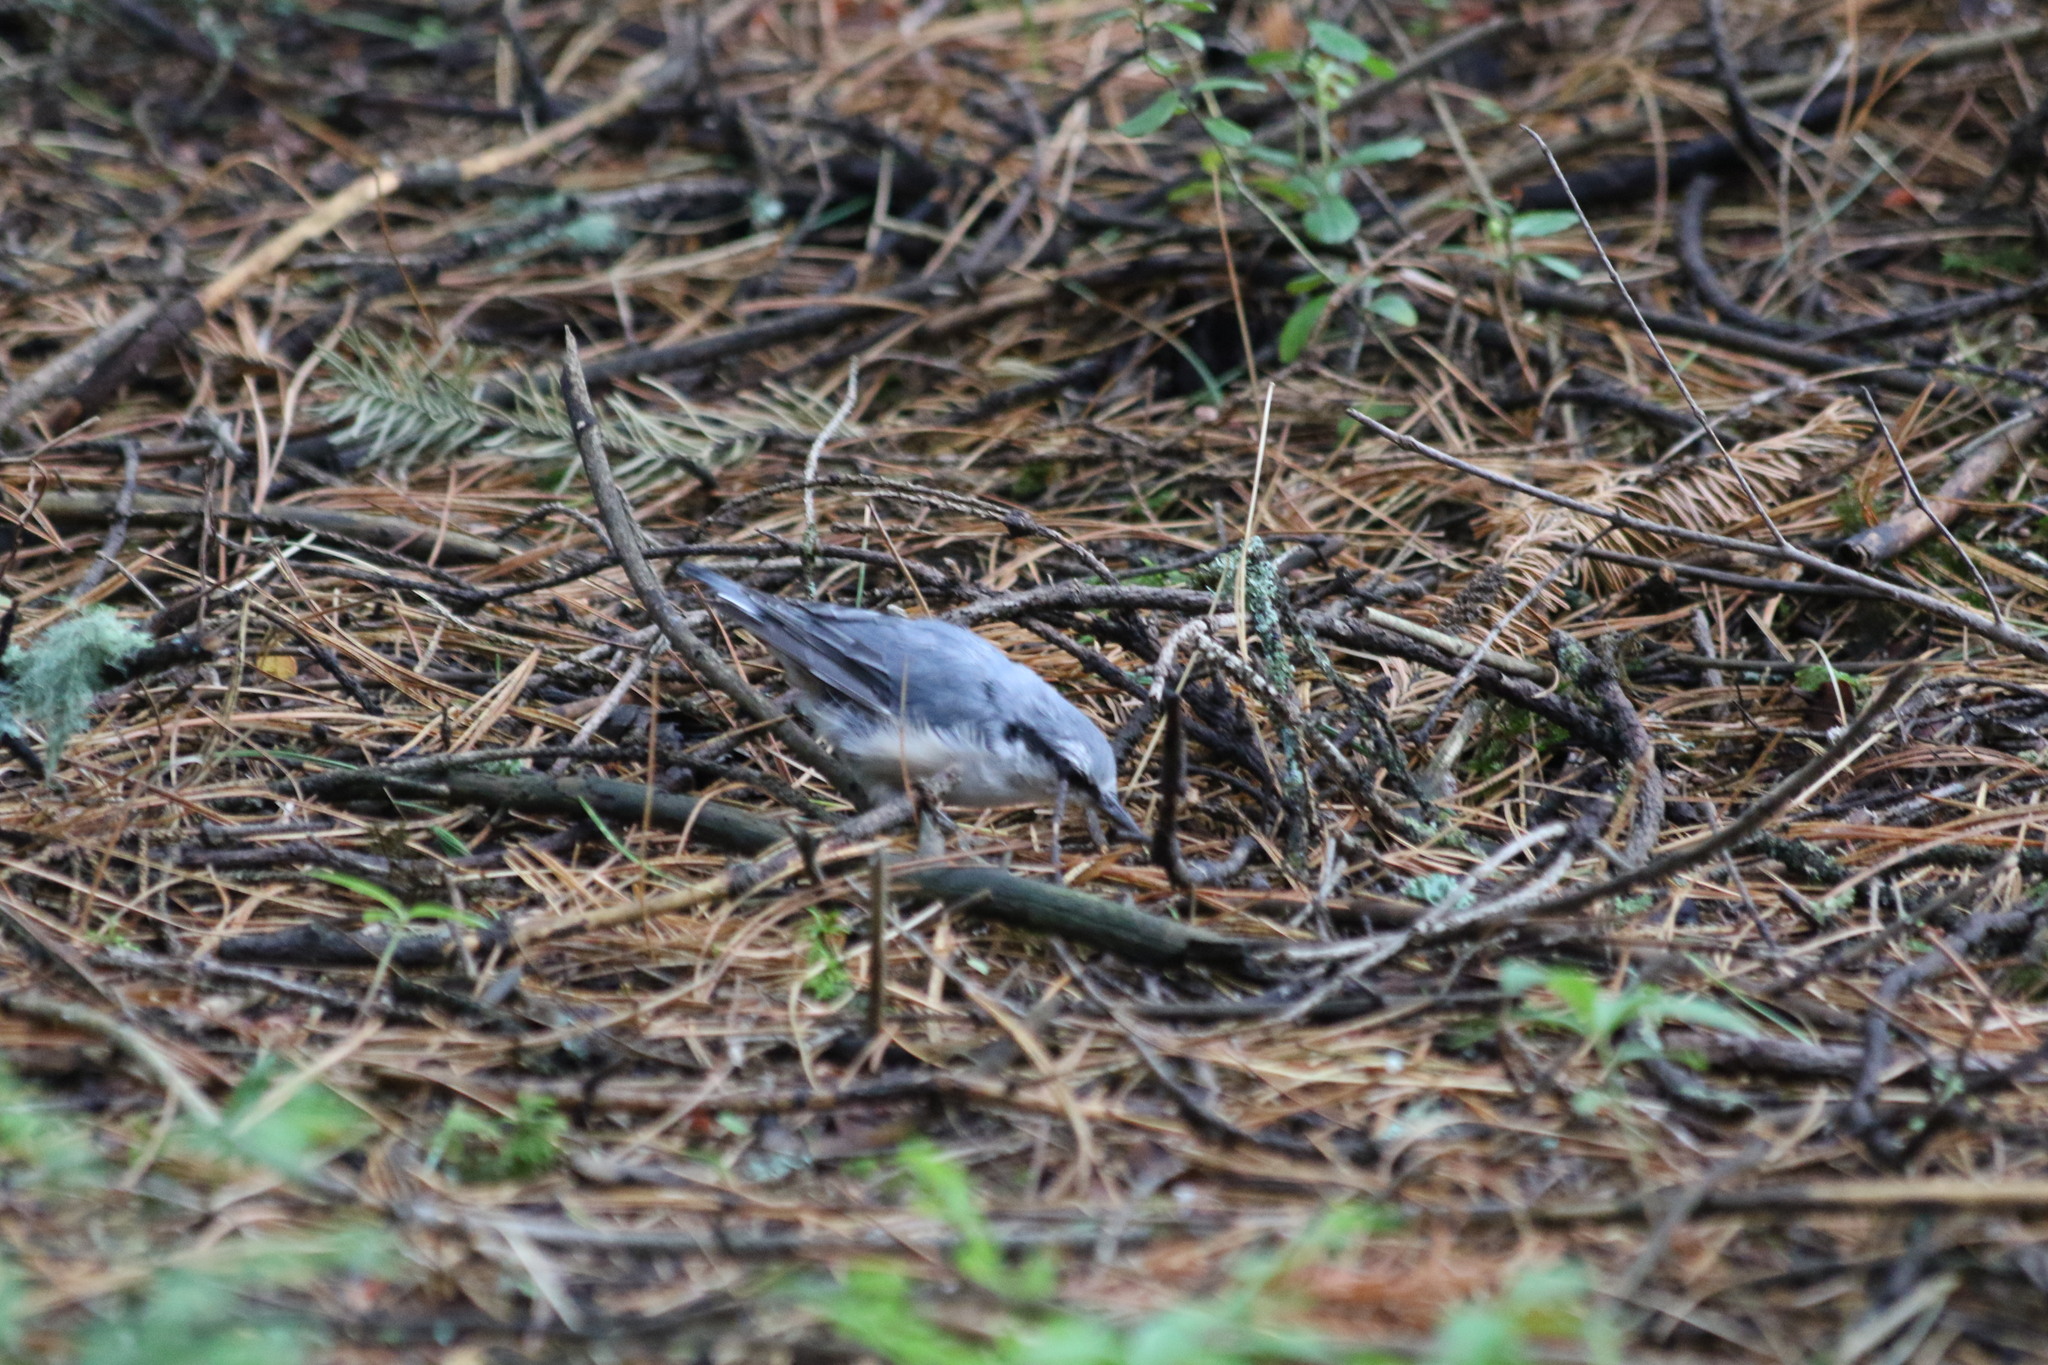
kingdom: Animalia
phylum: Chordata
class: Aves
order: Passeriformes
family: Sittidae
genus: Sitta
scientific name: Sitta europaea
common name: Eurasian nuthatch
